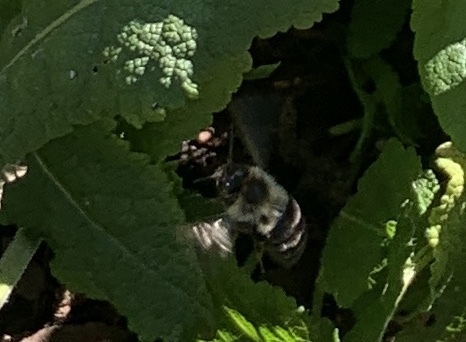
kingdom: Animalia
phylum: Arthropoda
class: Insecta
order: Hymenoptera
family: Apidae
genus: Bombus
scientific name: Bombus impatiens
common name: Common eastern bumble bee
